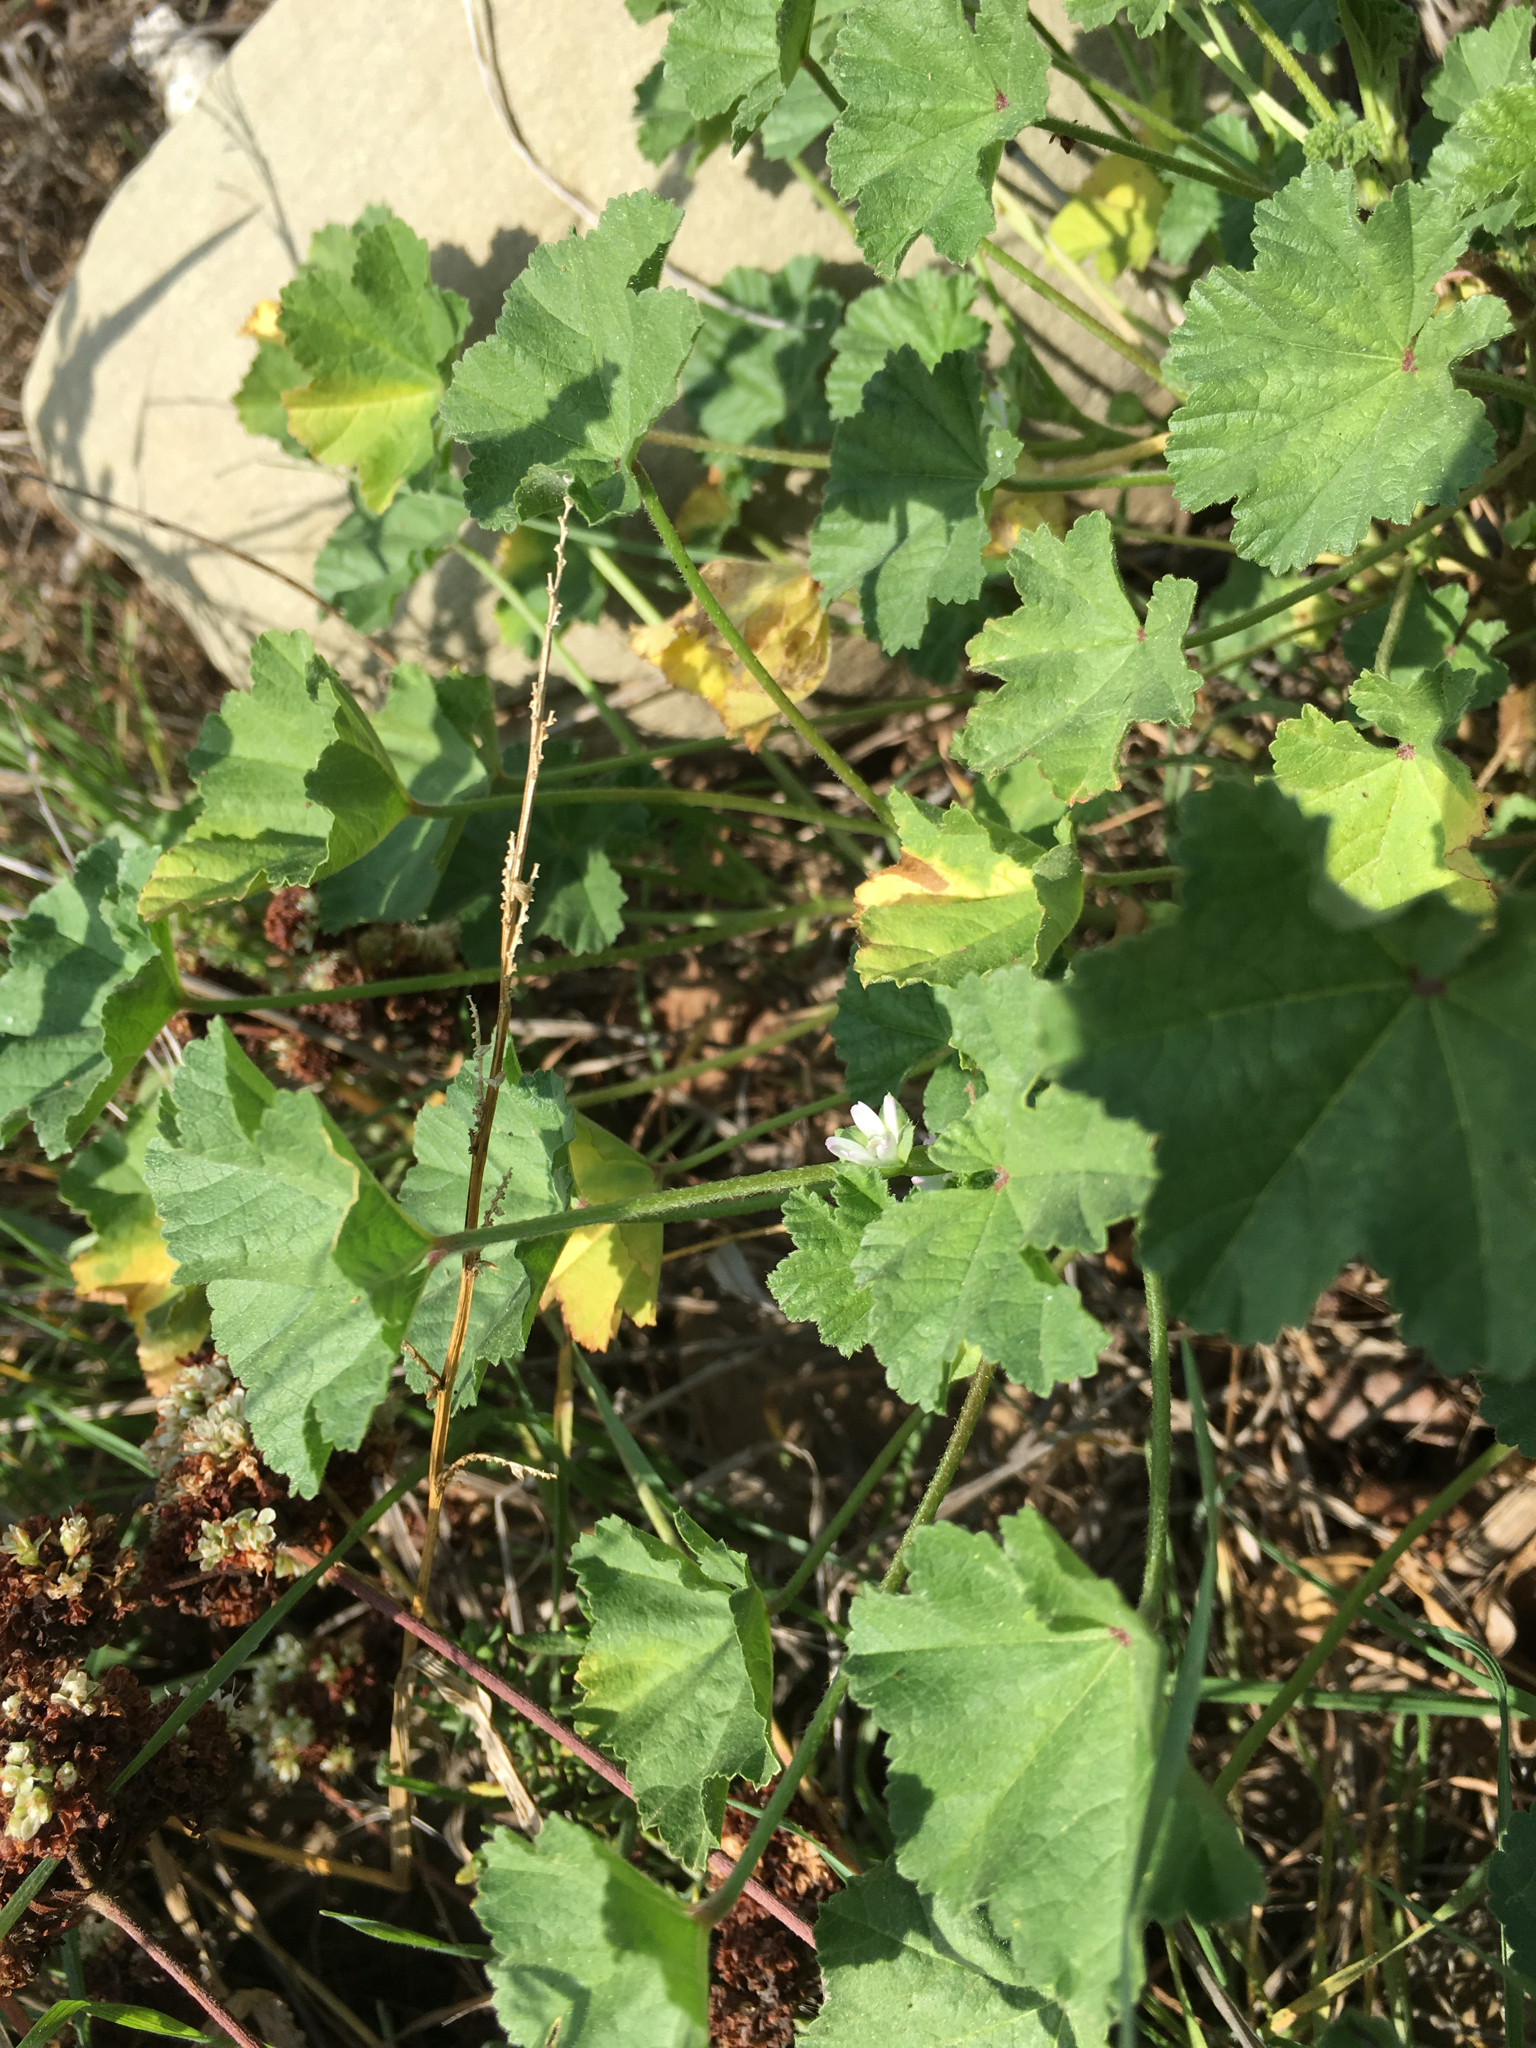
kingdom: Plantae
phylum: Tracheophyta
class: Magnoliopsida
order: Malvales
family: Malvaceae
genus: Malva
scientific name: Malva parviflora
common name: Least mallow
